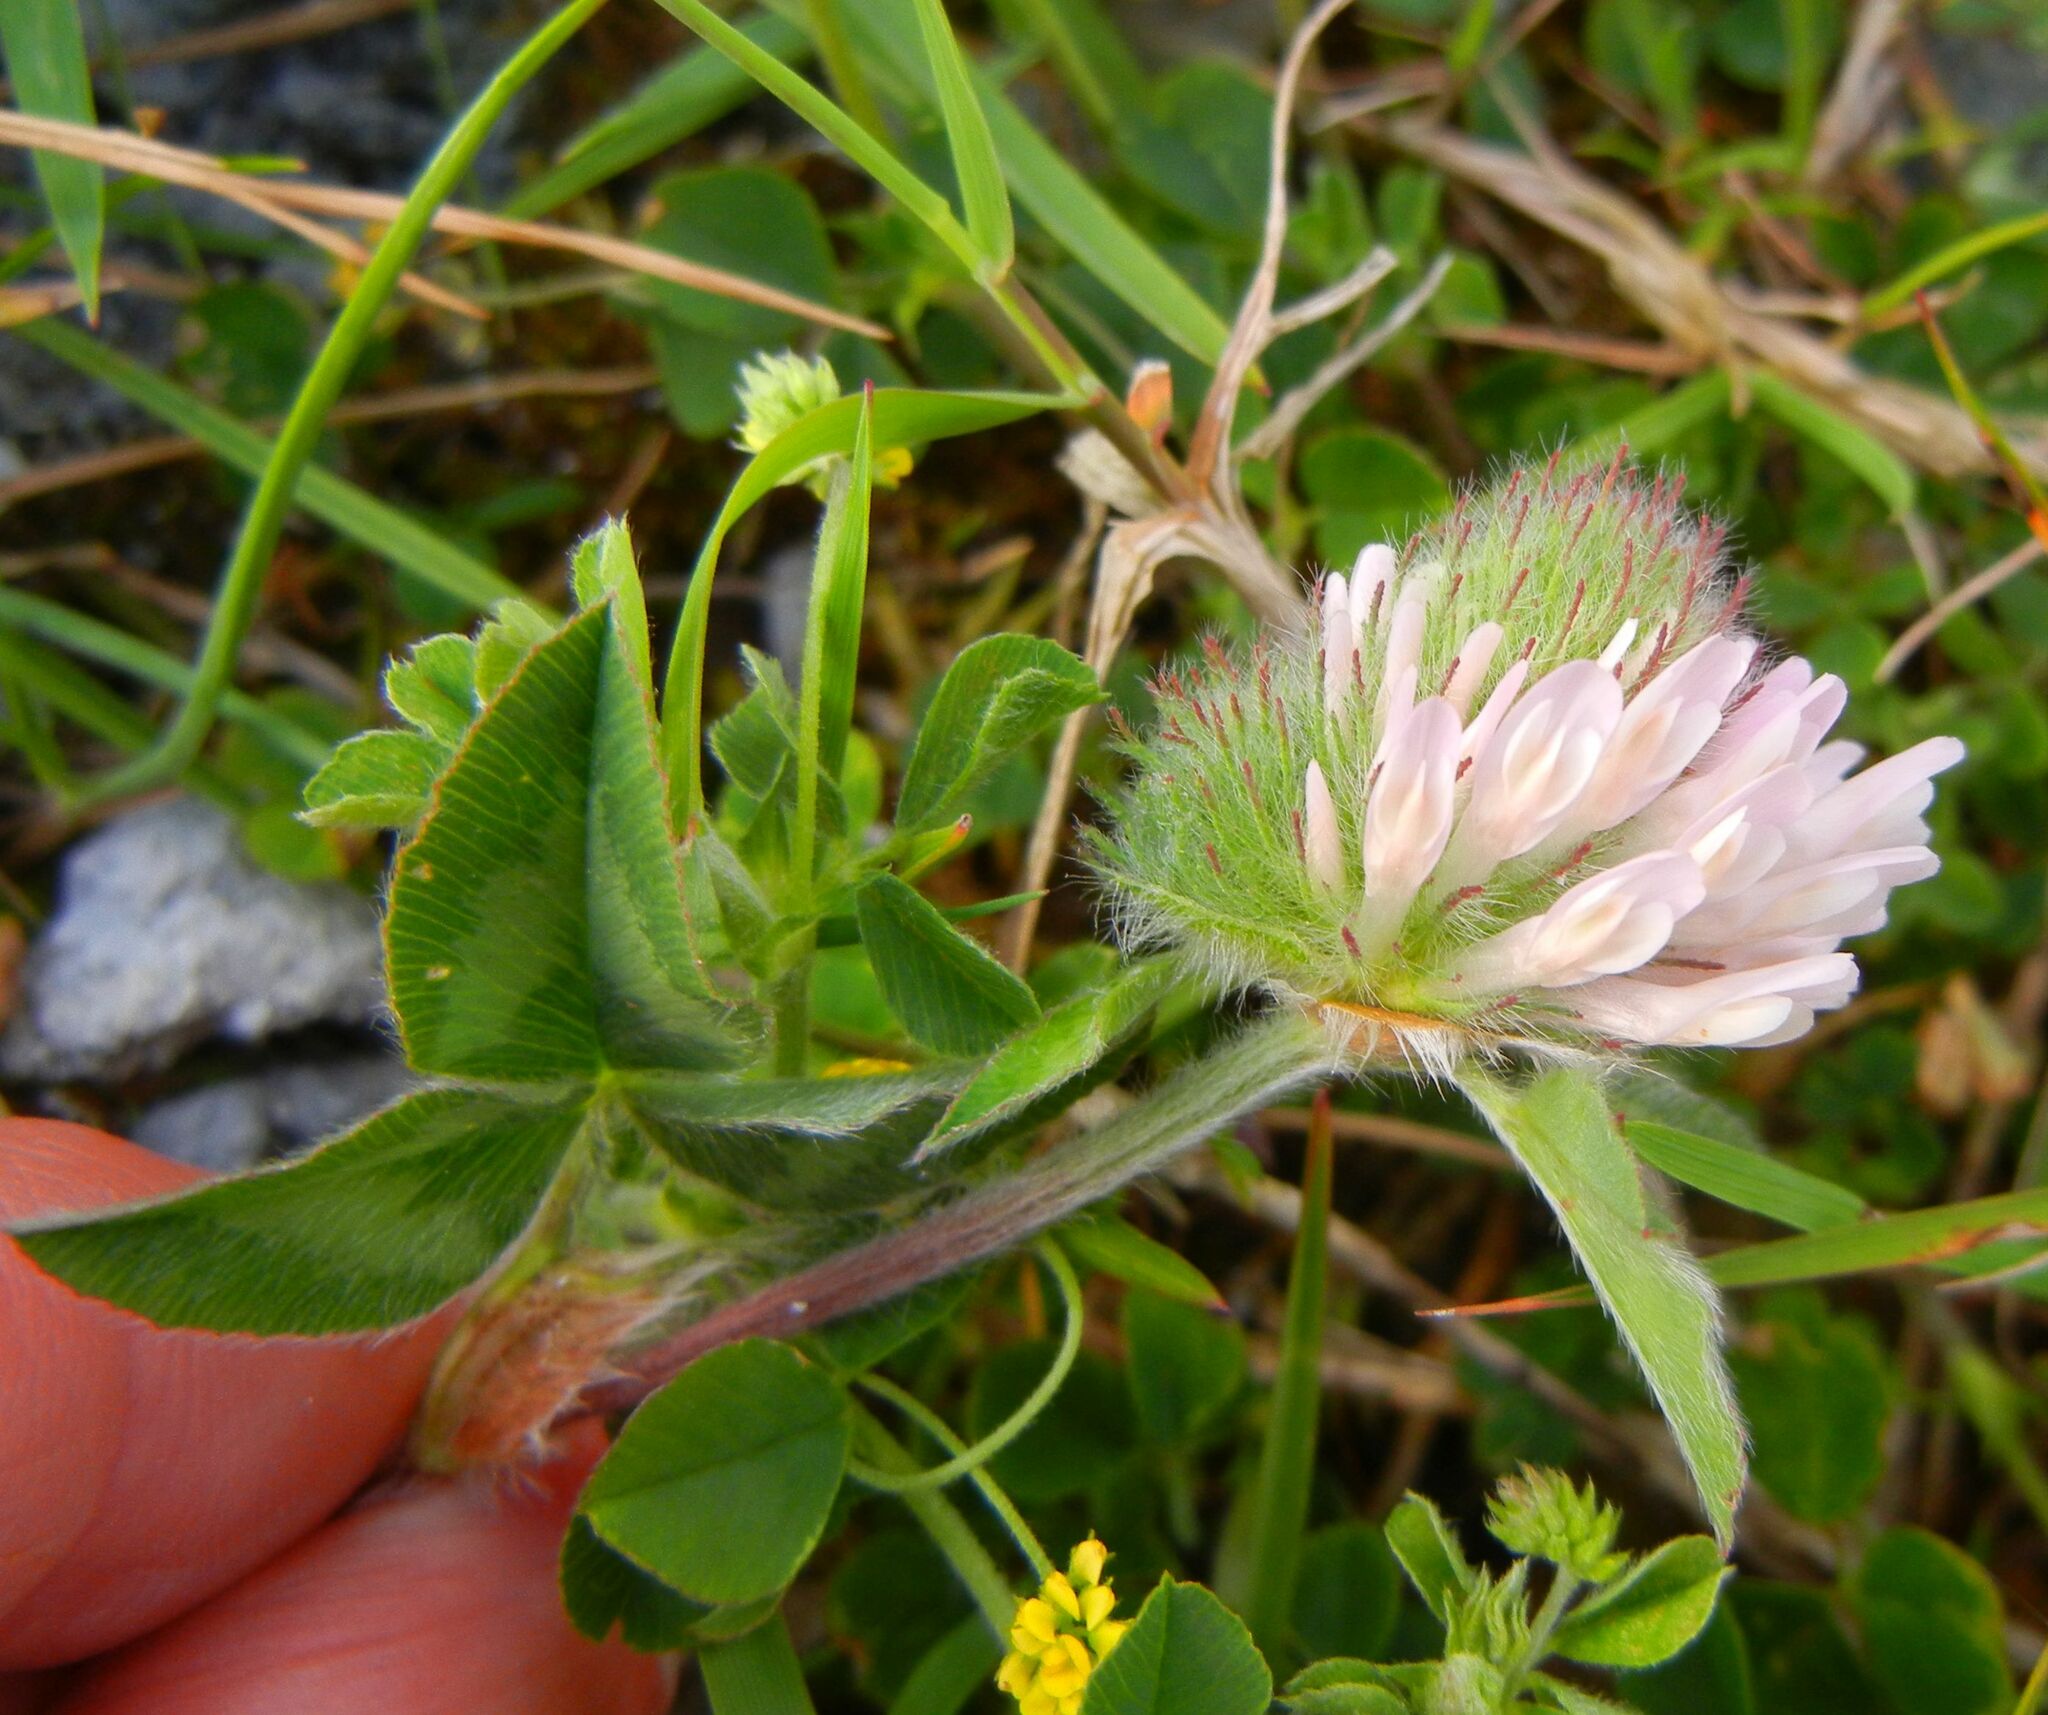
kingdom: Plantae
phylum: Tracheophyta
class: Magnoliopsida
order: Fabales
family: Fabaceae
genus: Trifolium
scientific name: Trifolium pratense
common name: Red clover
